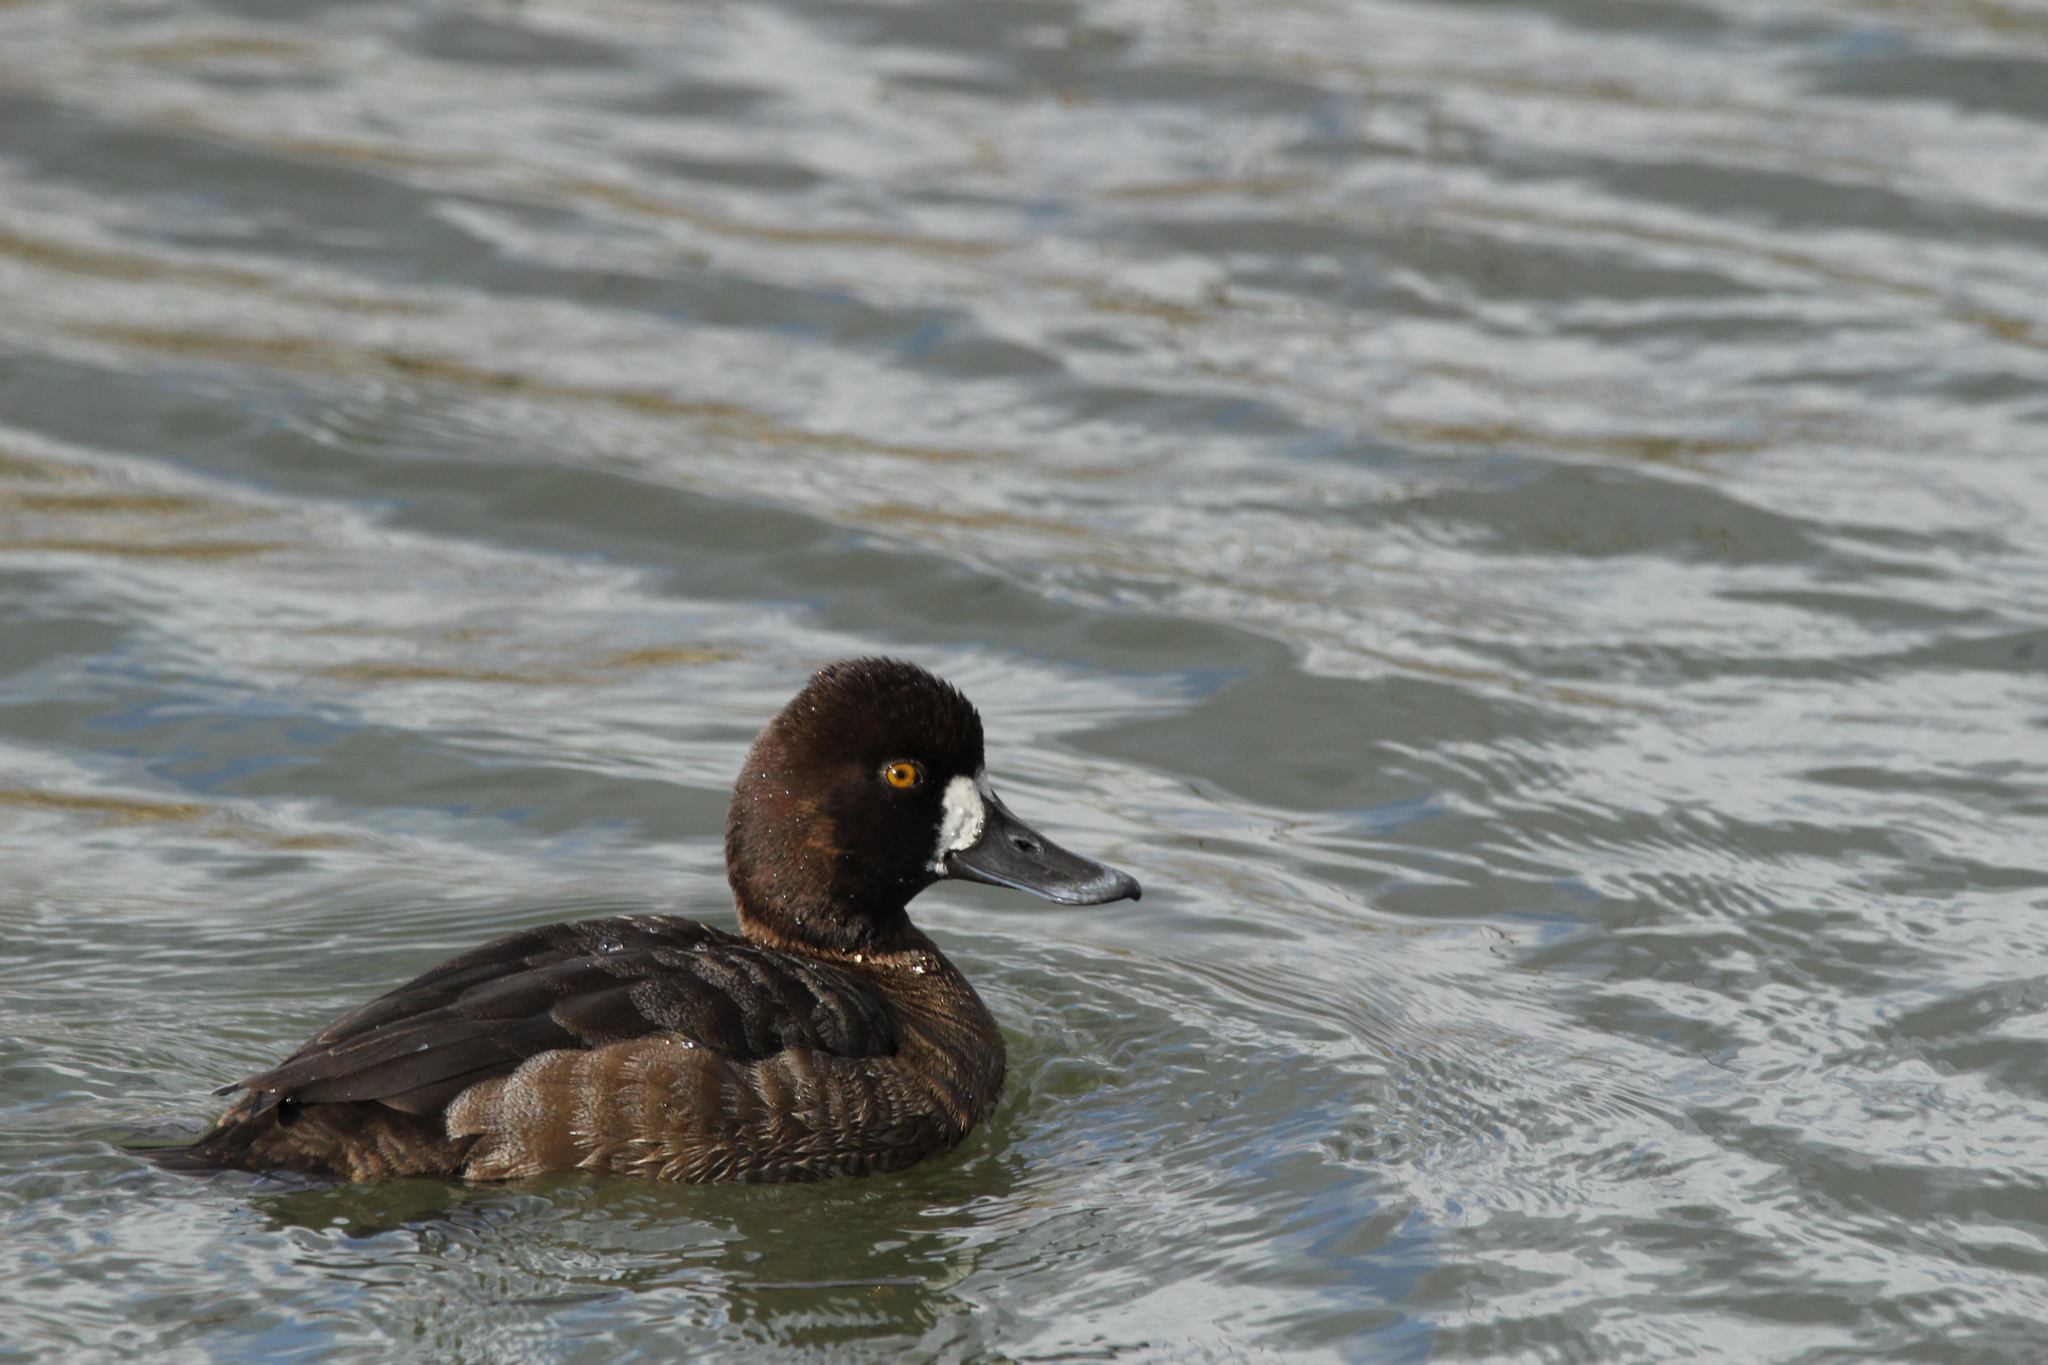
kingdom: Animalia
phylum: Chordata
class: Aves
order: Anseriformes
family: Anatidae
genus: Aythya
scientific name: Aythya affinis
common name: Lesser scaup
